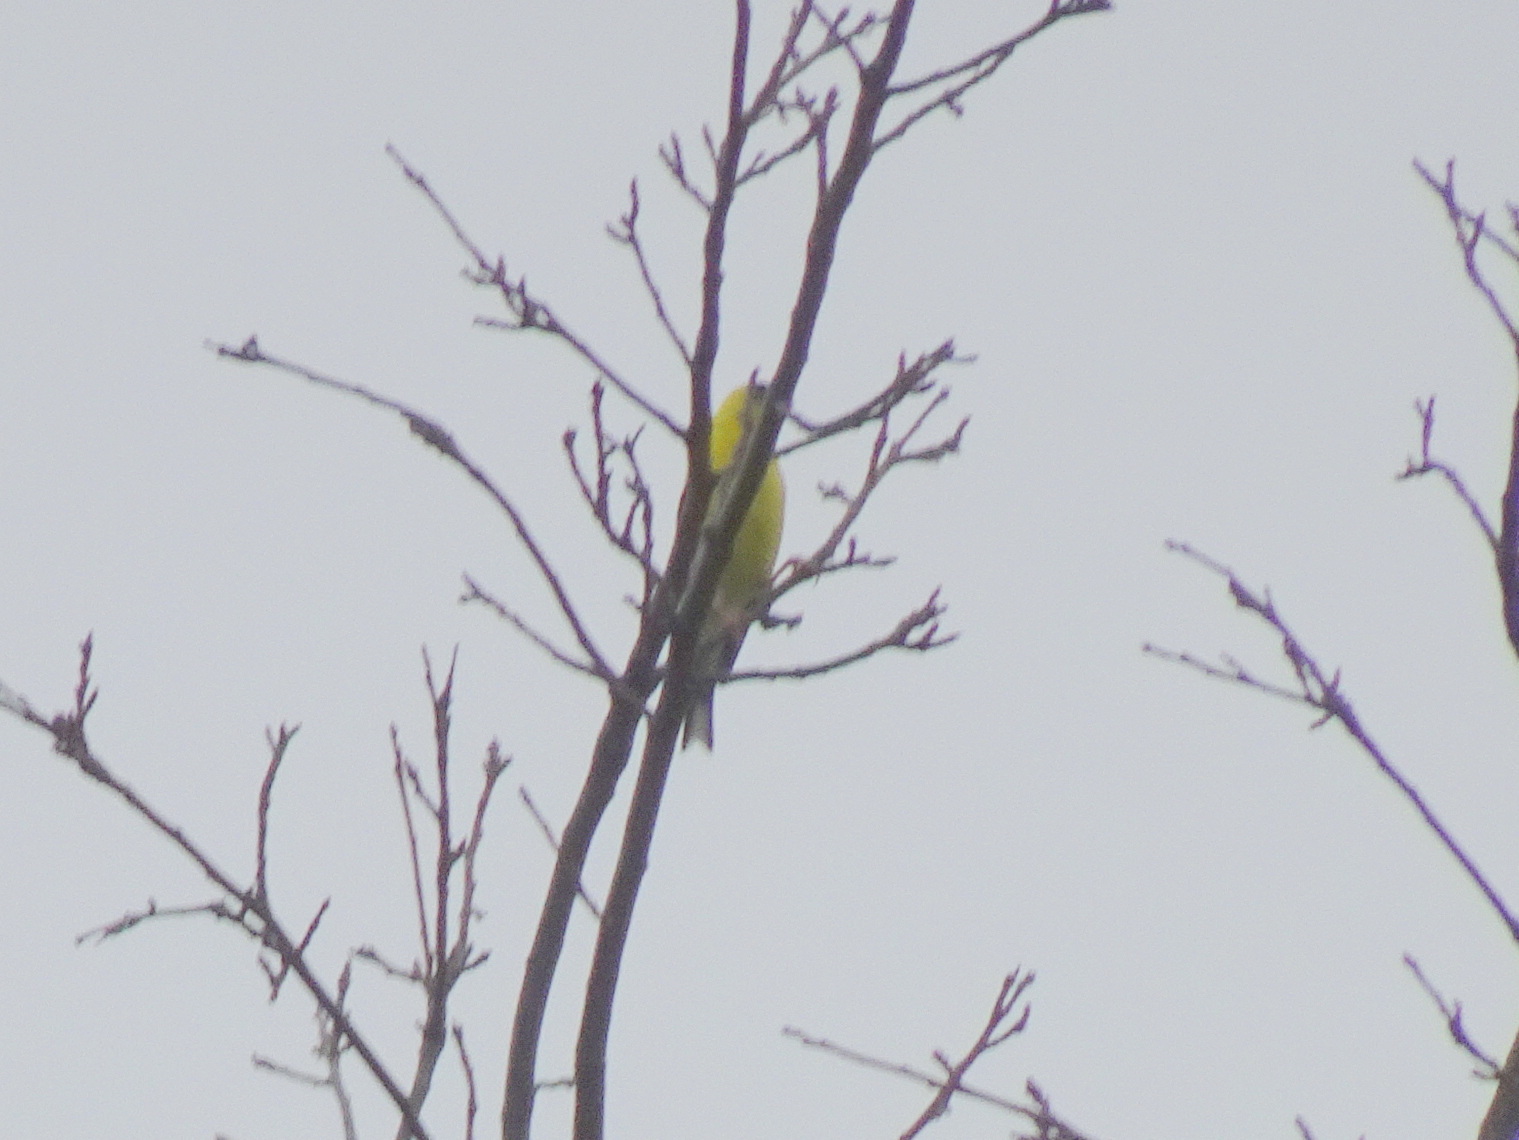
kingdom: Animalia
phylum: Chordata
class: Aves
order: Passeriformes
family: Fringillidae
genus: Spinus
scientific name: Spinus tristis
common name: American goldfinch
